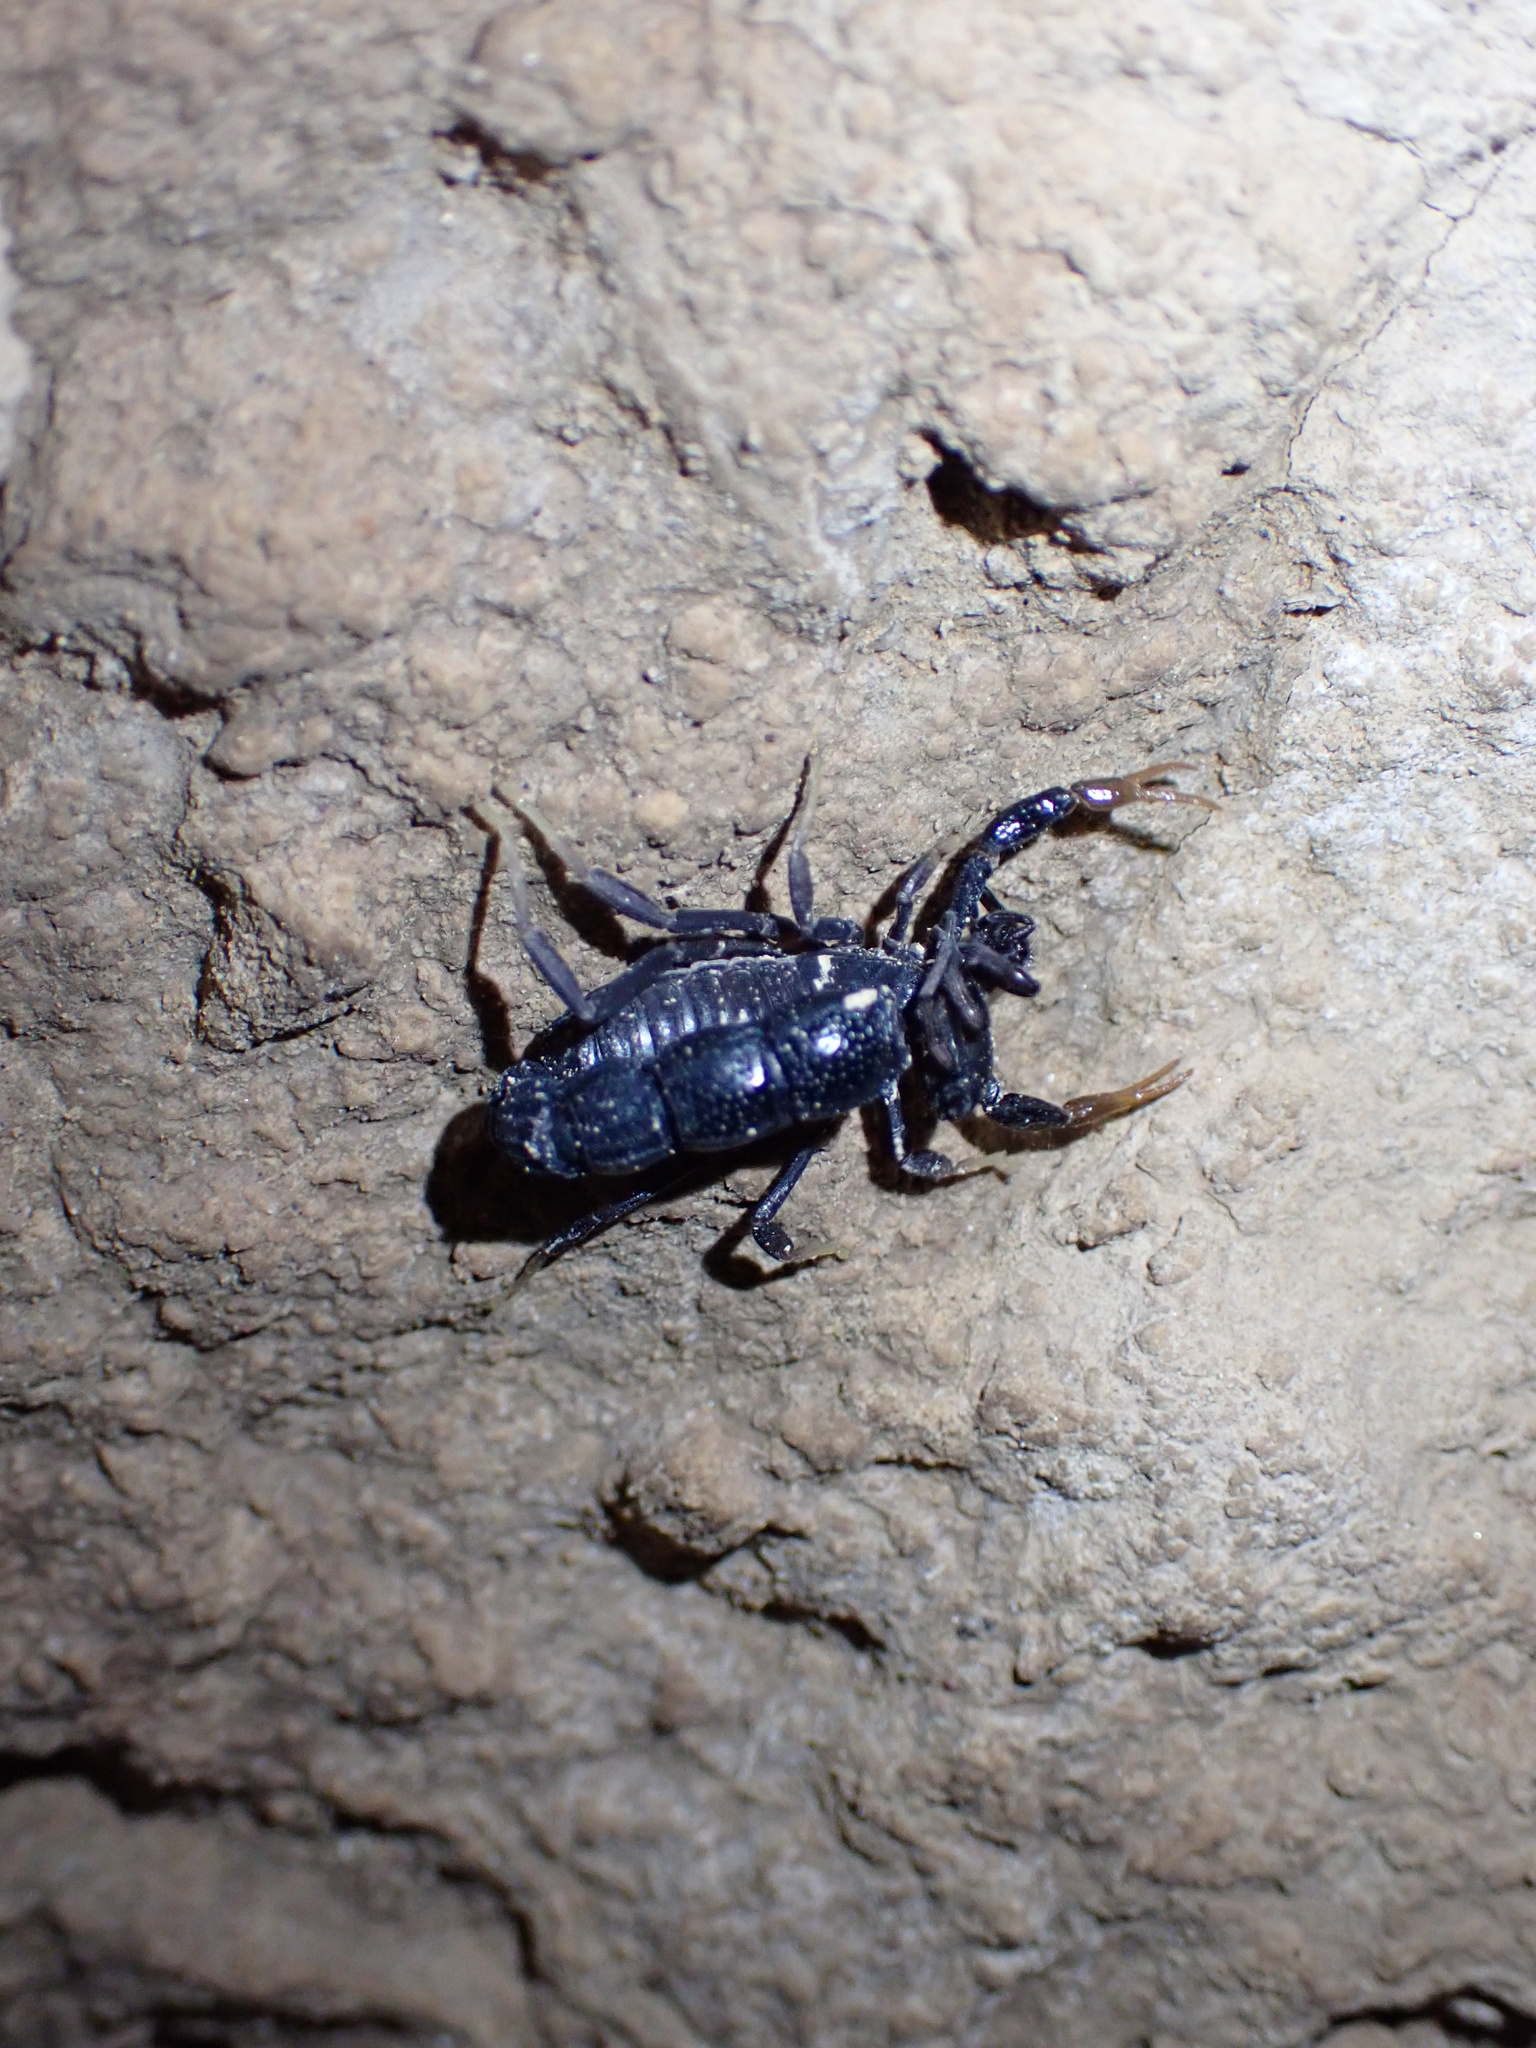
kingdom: Animalia
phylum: Arthropoda
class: Arachnida
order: Scorpiones
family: Buthidae
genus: Orthochirus
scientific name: Orthochirus mesopotamicus
